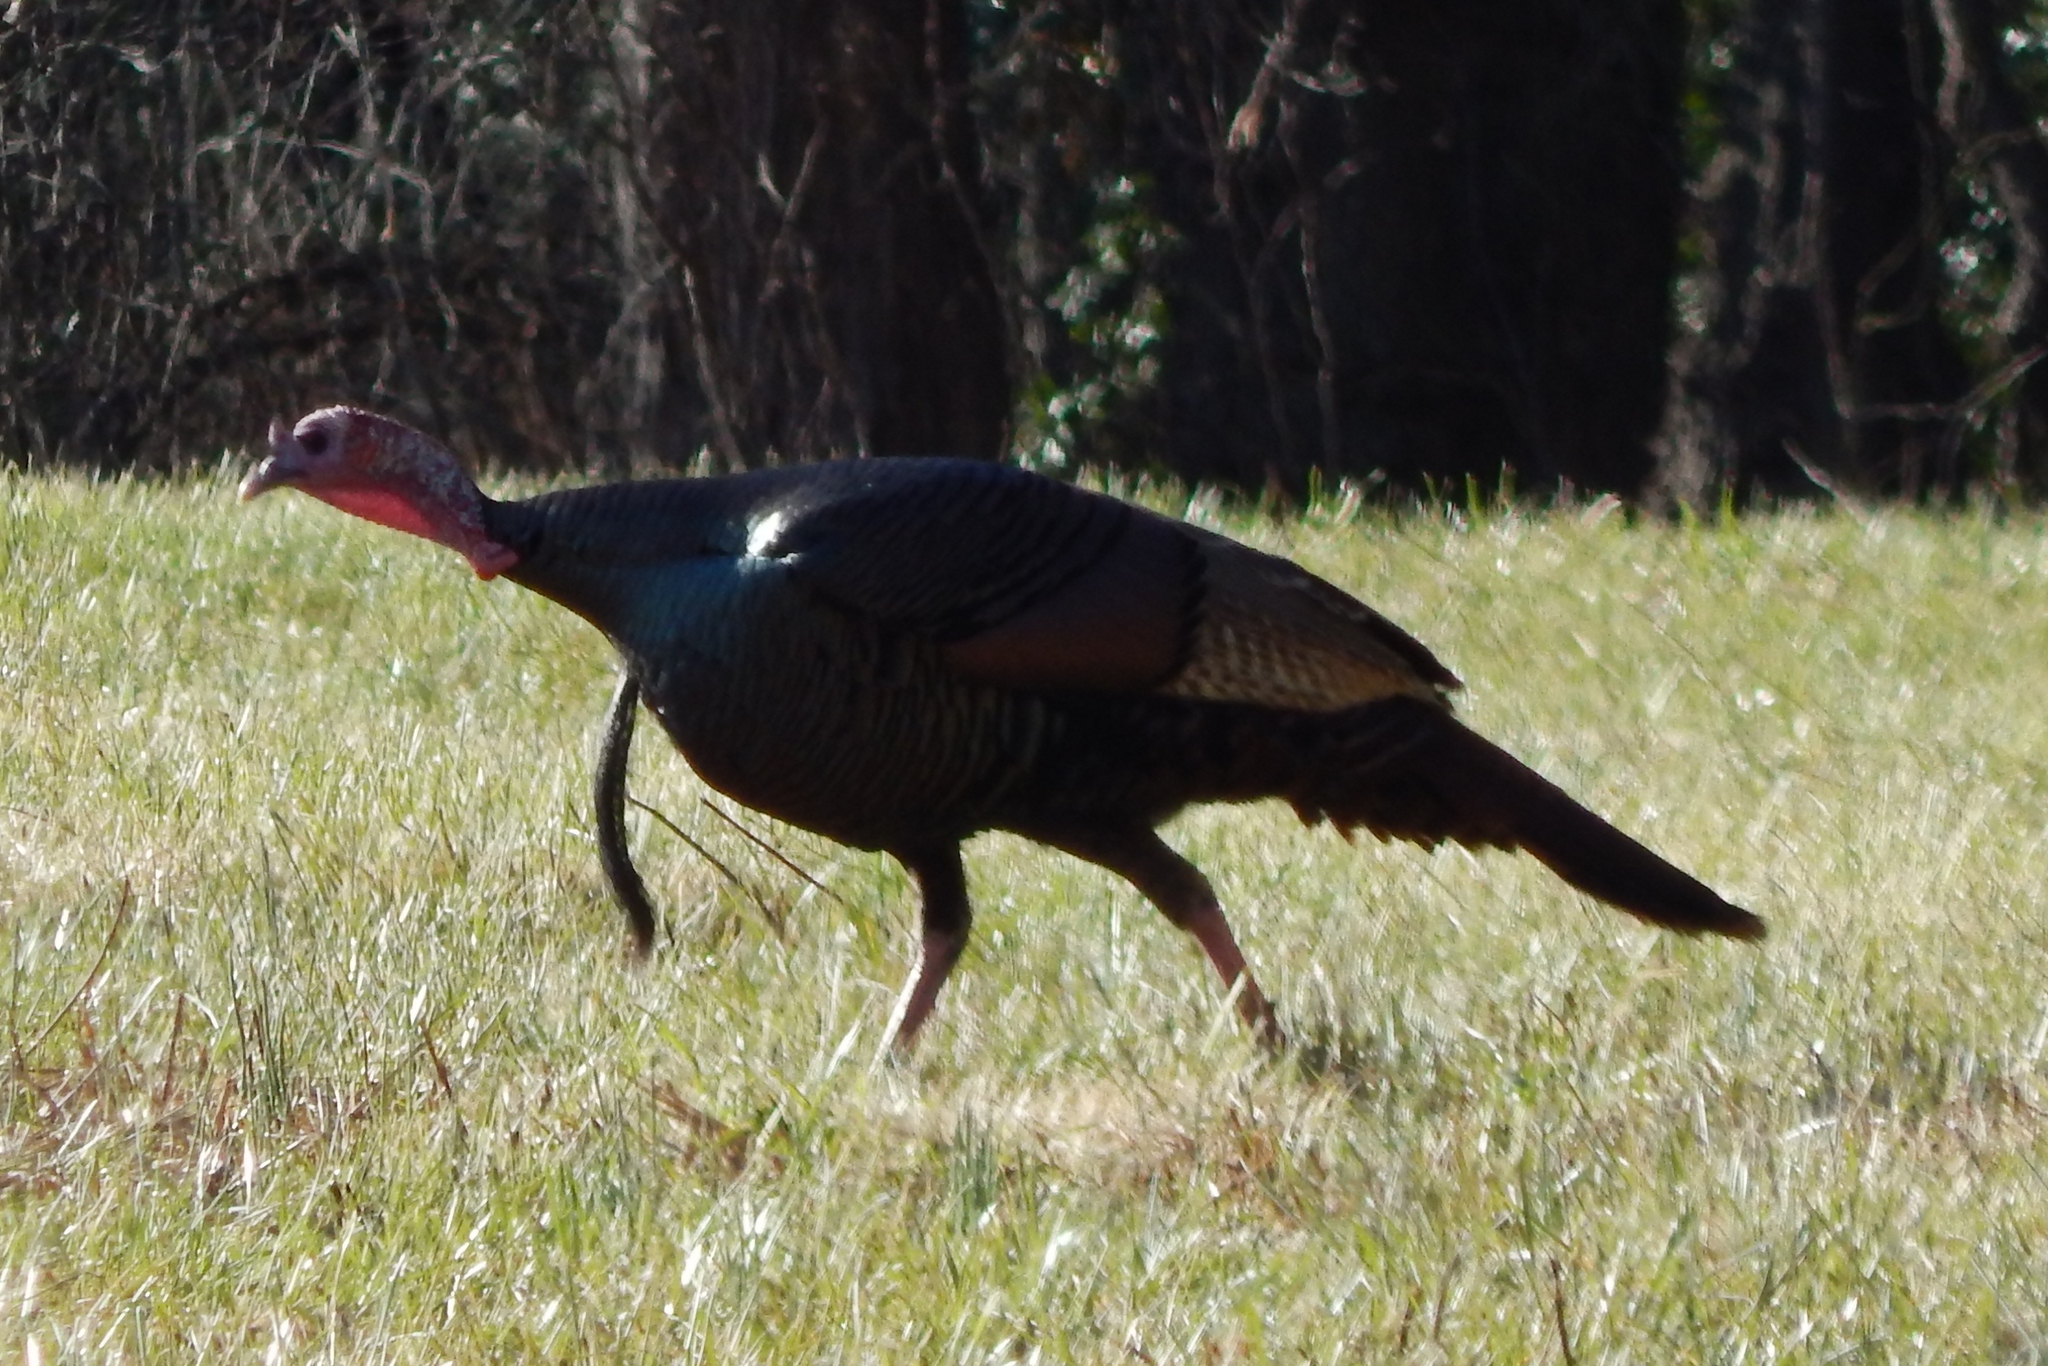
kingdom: Animalia
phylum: Chordata
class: Aves
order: Galliformes
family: Phasianidae
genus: Meleagris
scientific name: Meleagris gallopavo
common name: Wild turkey
